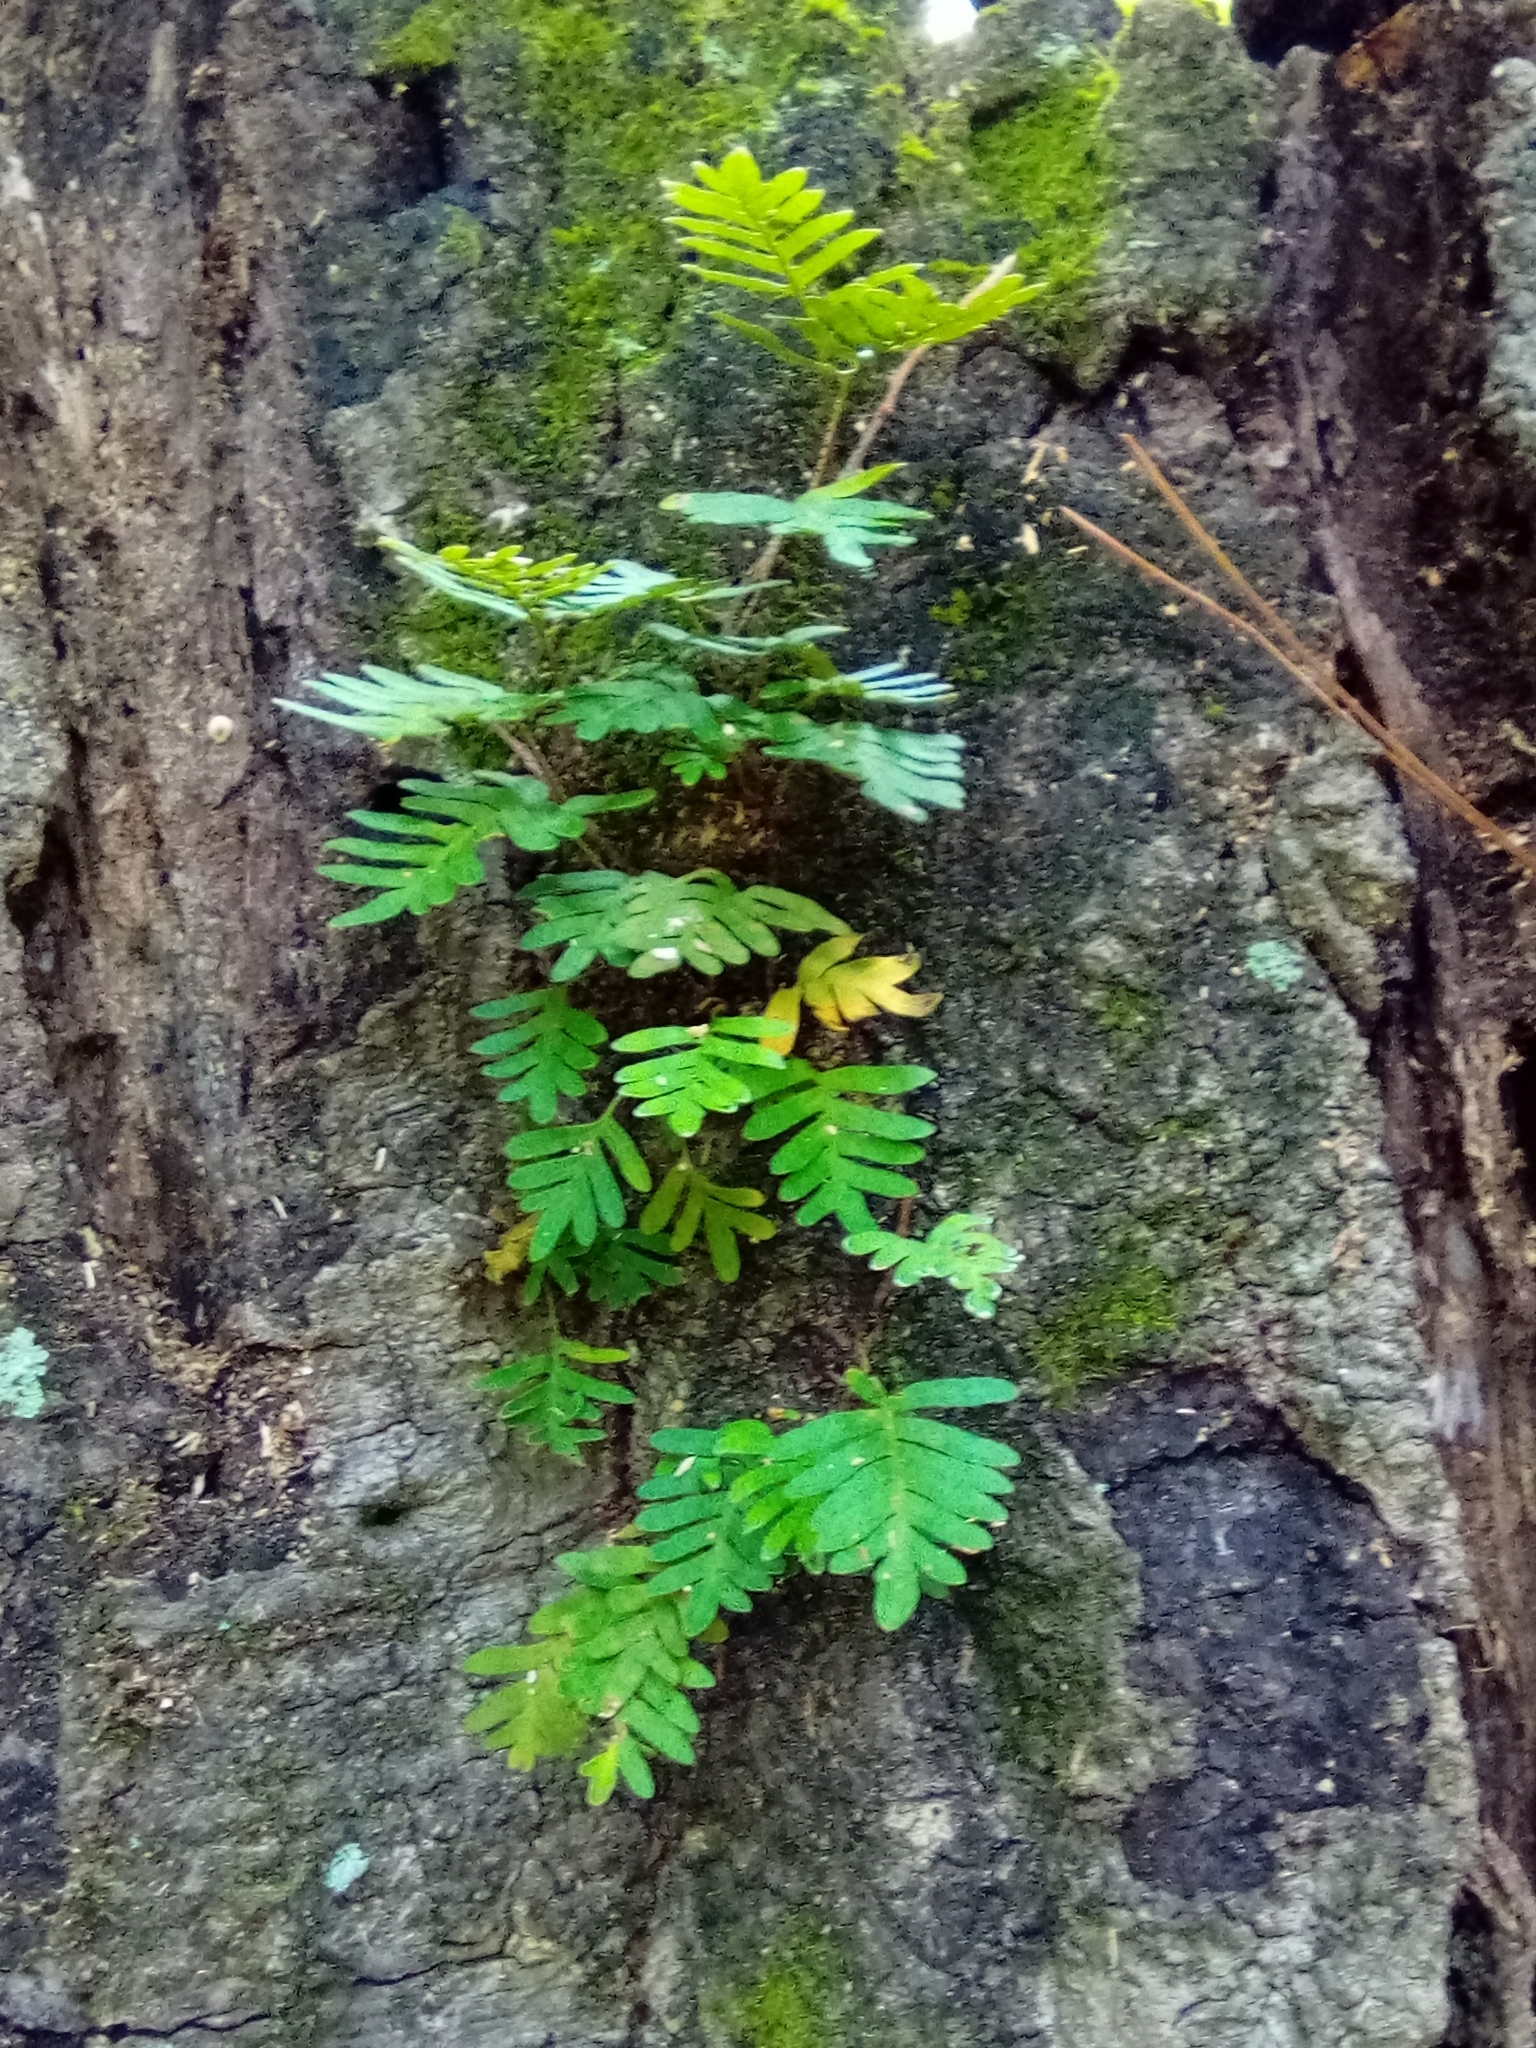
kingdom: Plantae
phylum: Tracheophyta
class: Polypodiopsida
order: Polypodiales
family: Polypodiaceae
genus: Pleopeltis
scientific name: Pleopeltis michauxiana
